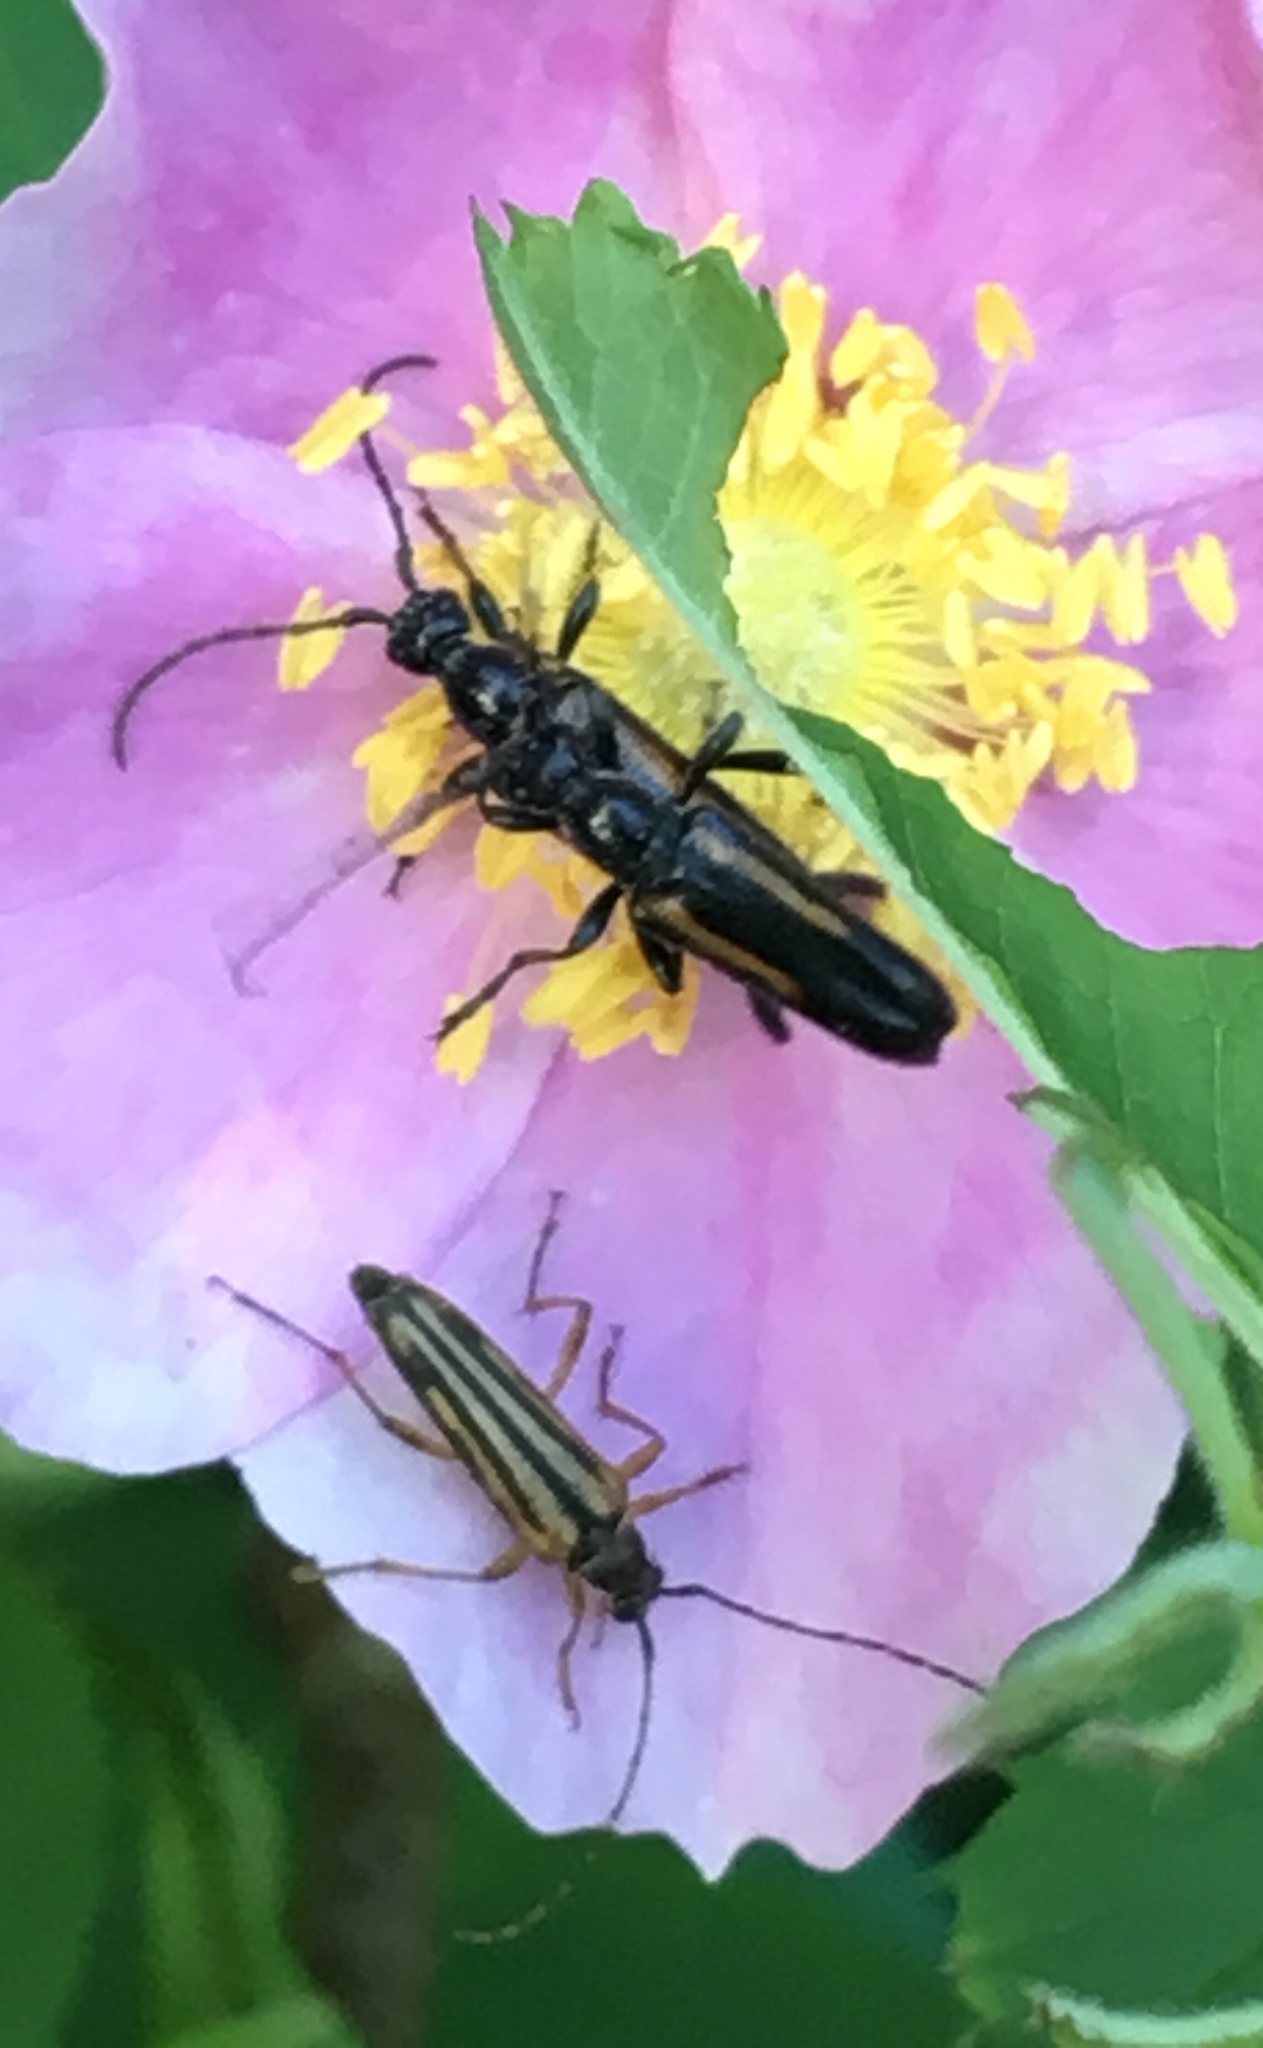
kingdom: Animalia
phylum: Arthropoda
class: Insecta
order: Coleoptera
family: Cerambycidae
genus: Strangalepta
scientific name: Strangalepta abbreviata
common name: Strangalepta flower longhorn beetle
